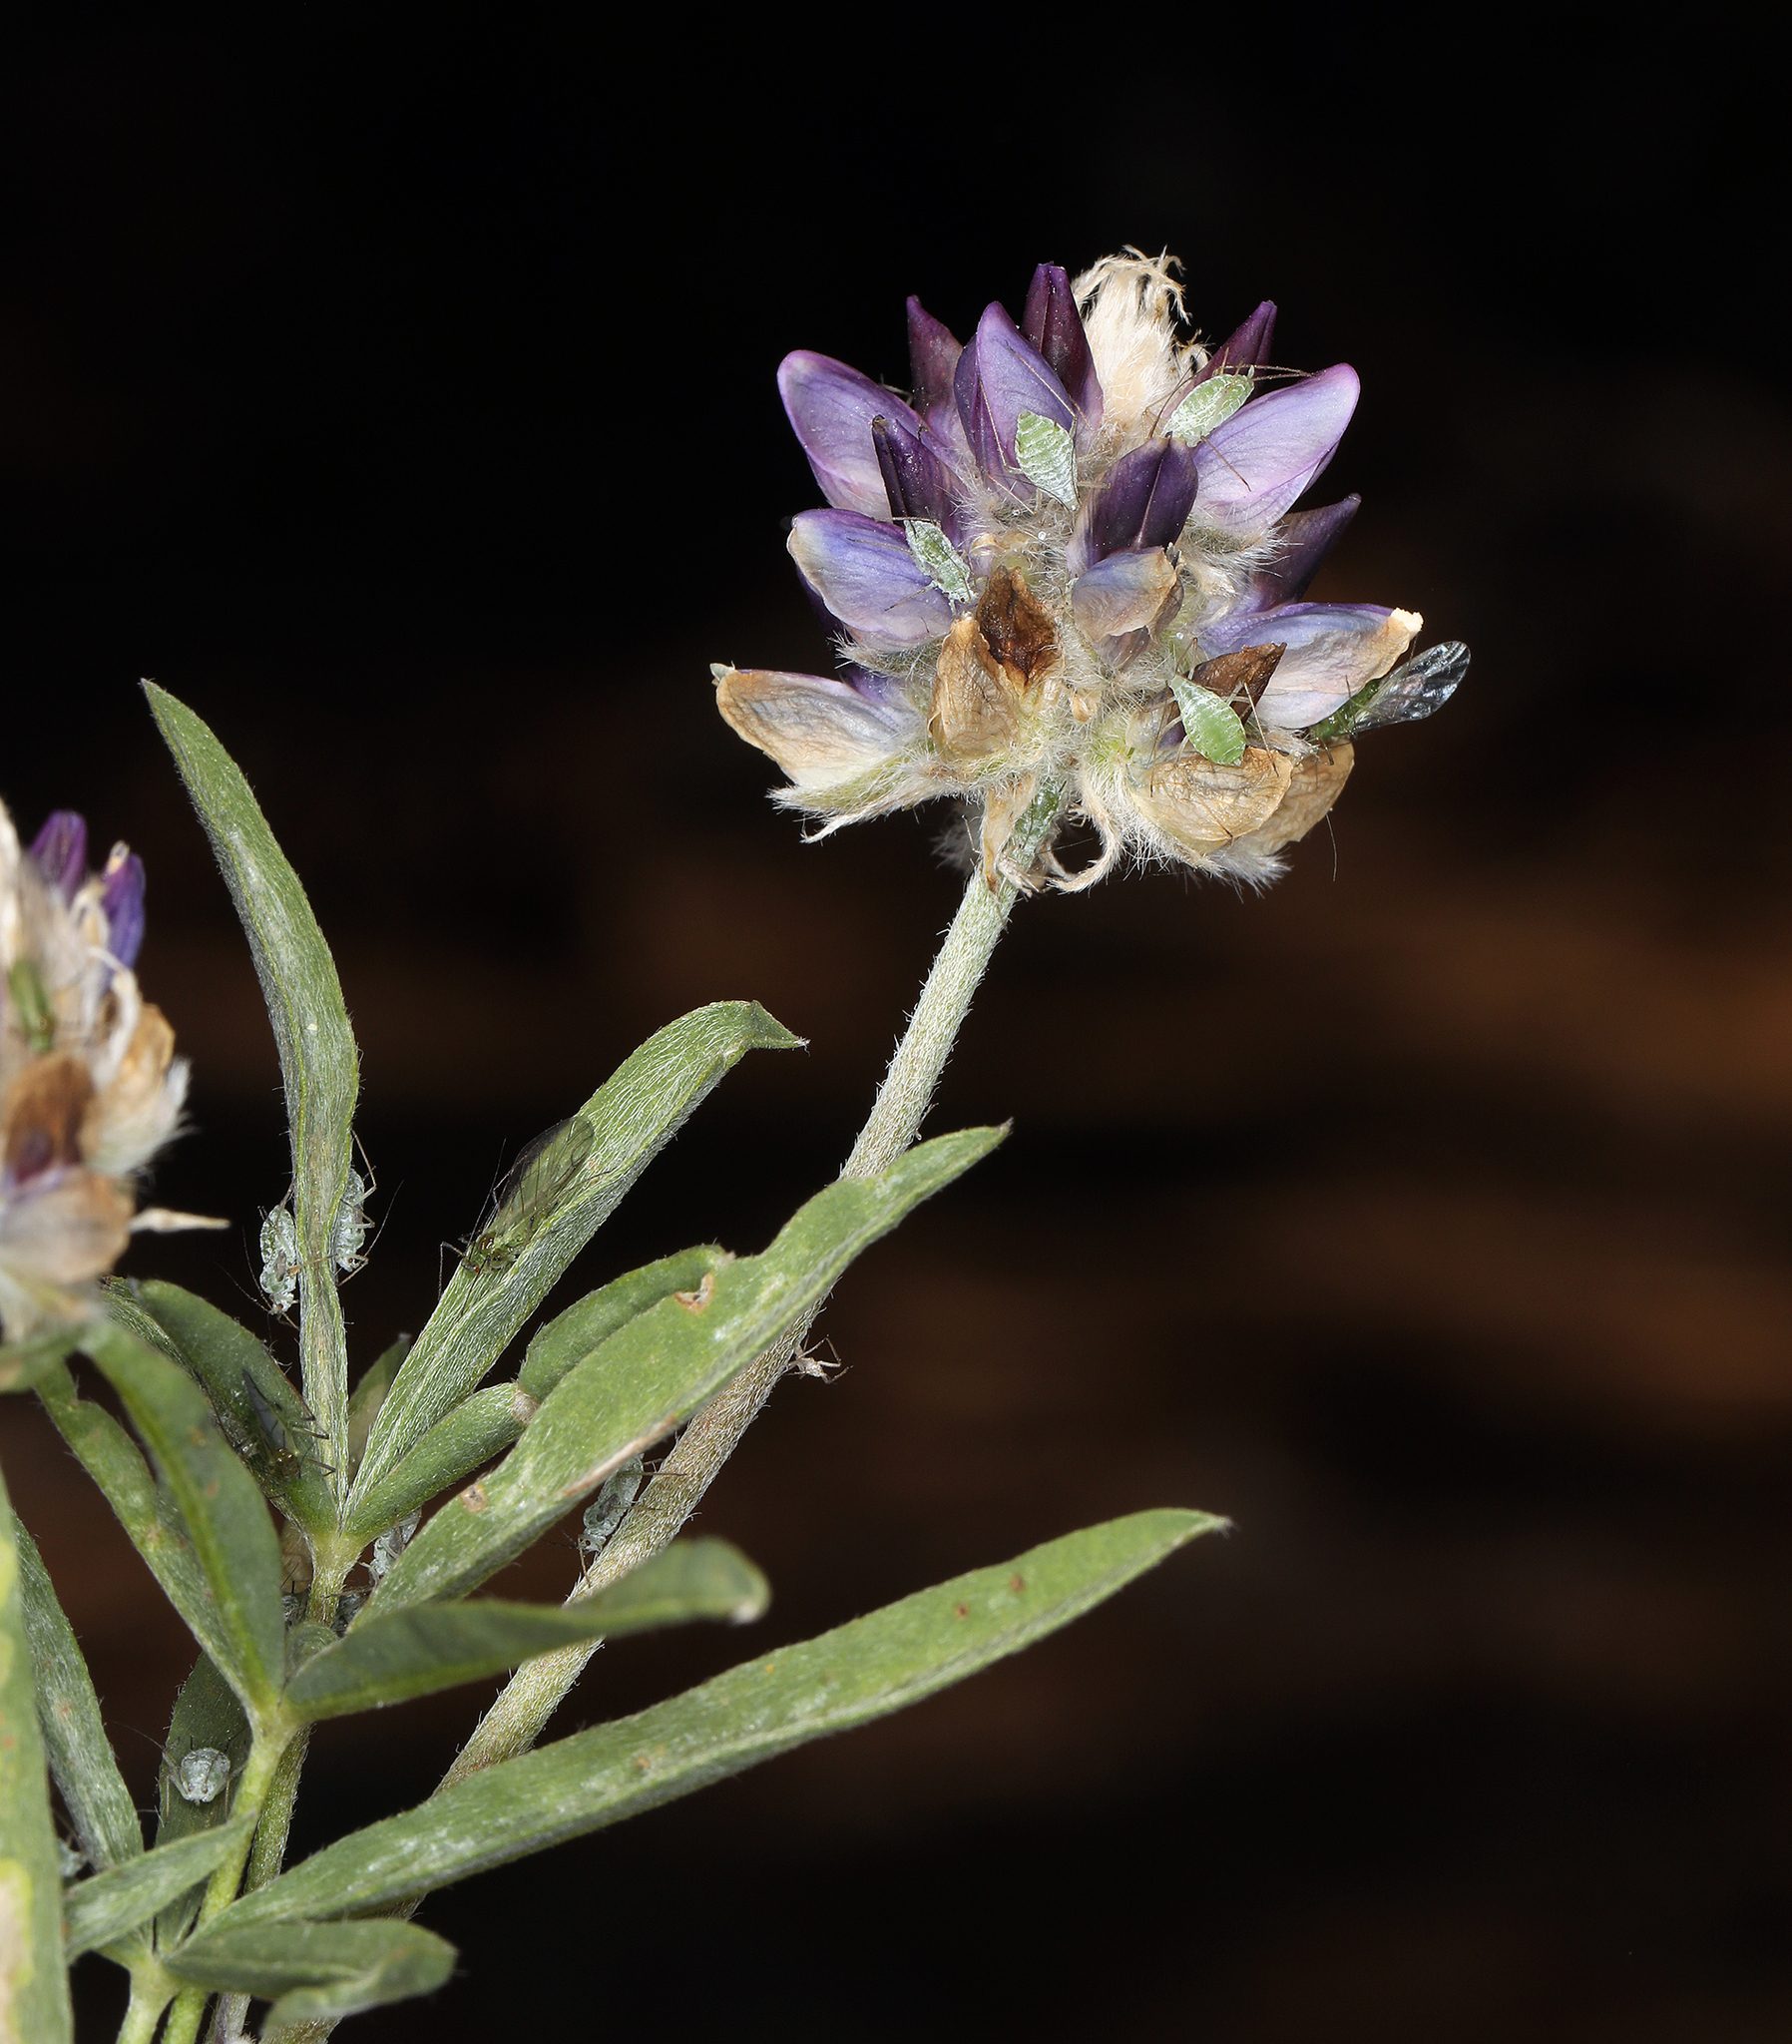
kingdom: Plantae
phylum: Tracheophyta
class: Magnoliopsida
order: Fabales
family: Fabaceae
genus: Lupinus
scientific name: Lupinus pratensis
